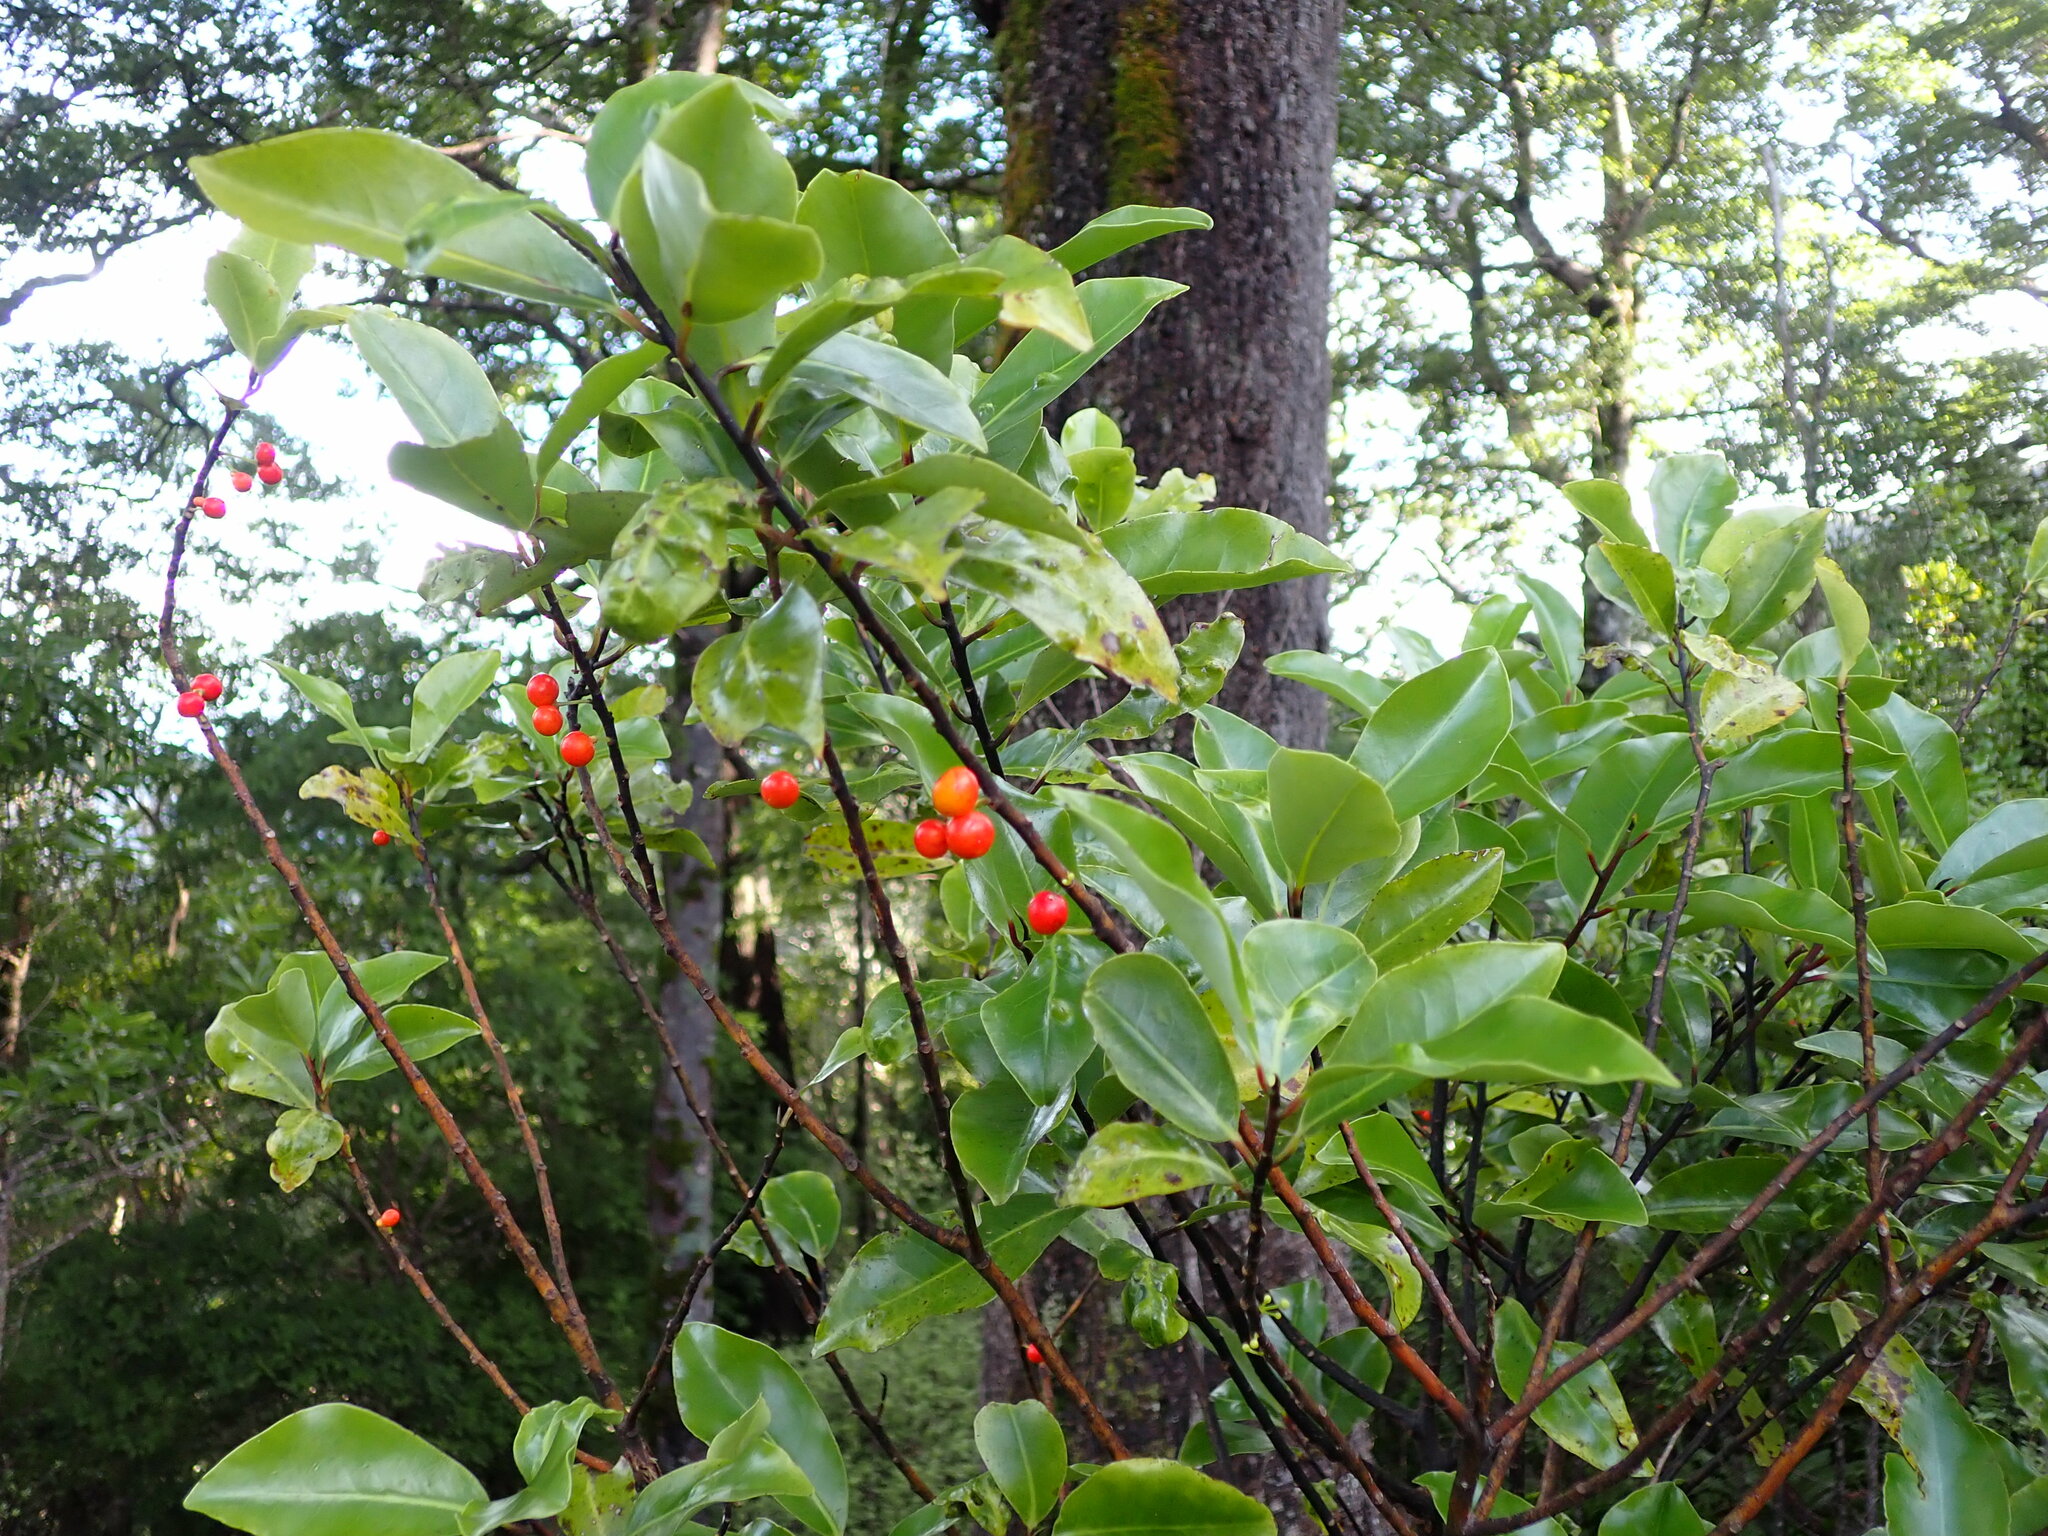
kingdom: Plantae
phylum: Tracheophyta
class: Magnoliopsida
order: Canellales
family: Winteraceae
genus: Pseudowintera
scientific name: Pseudowintera axillaris
